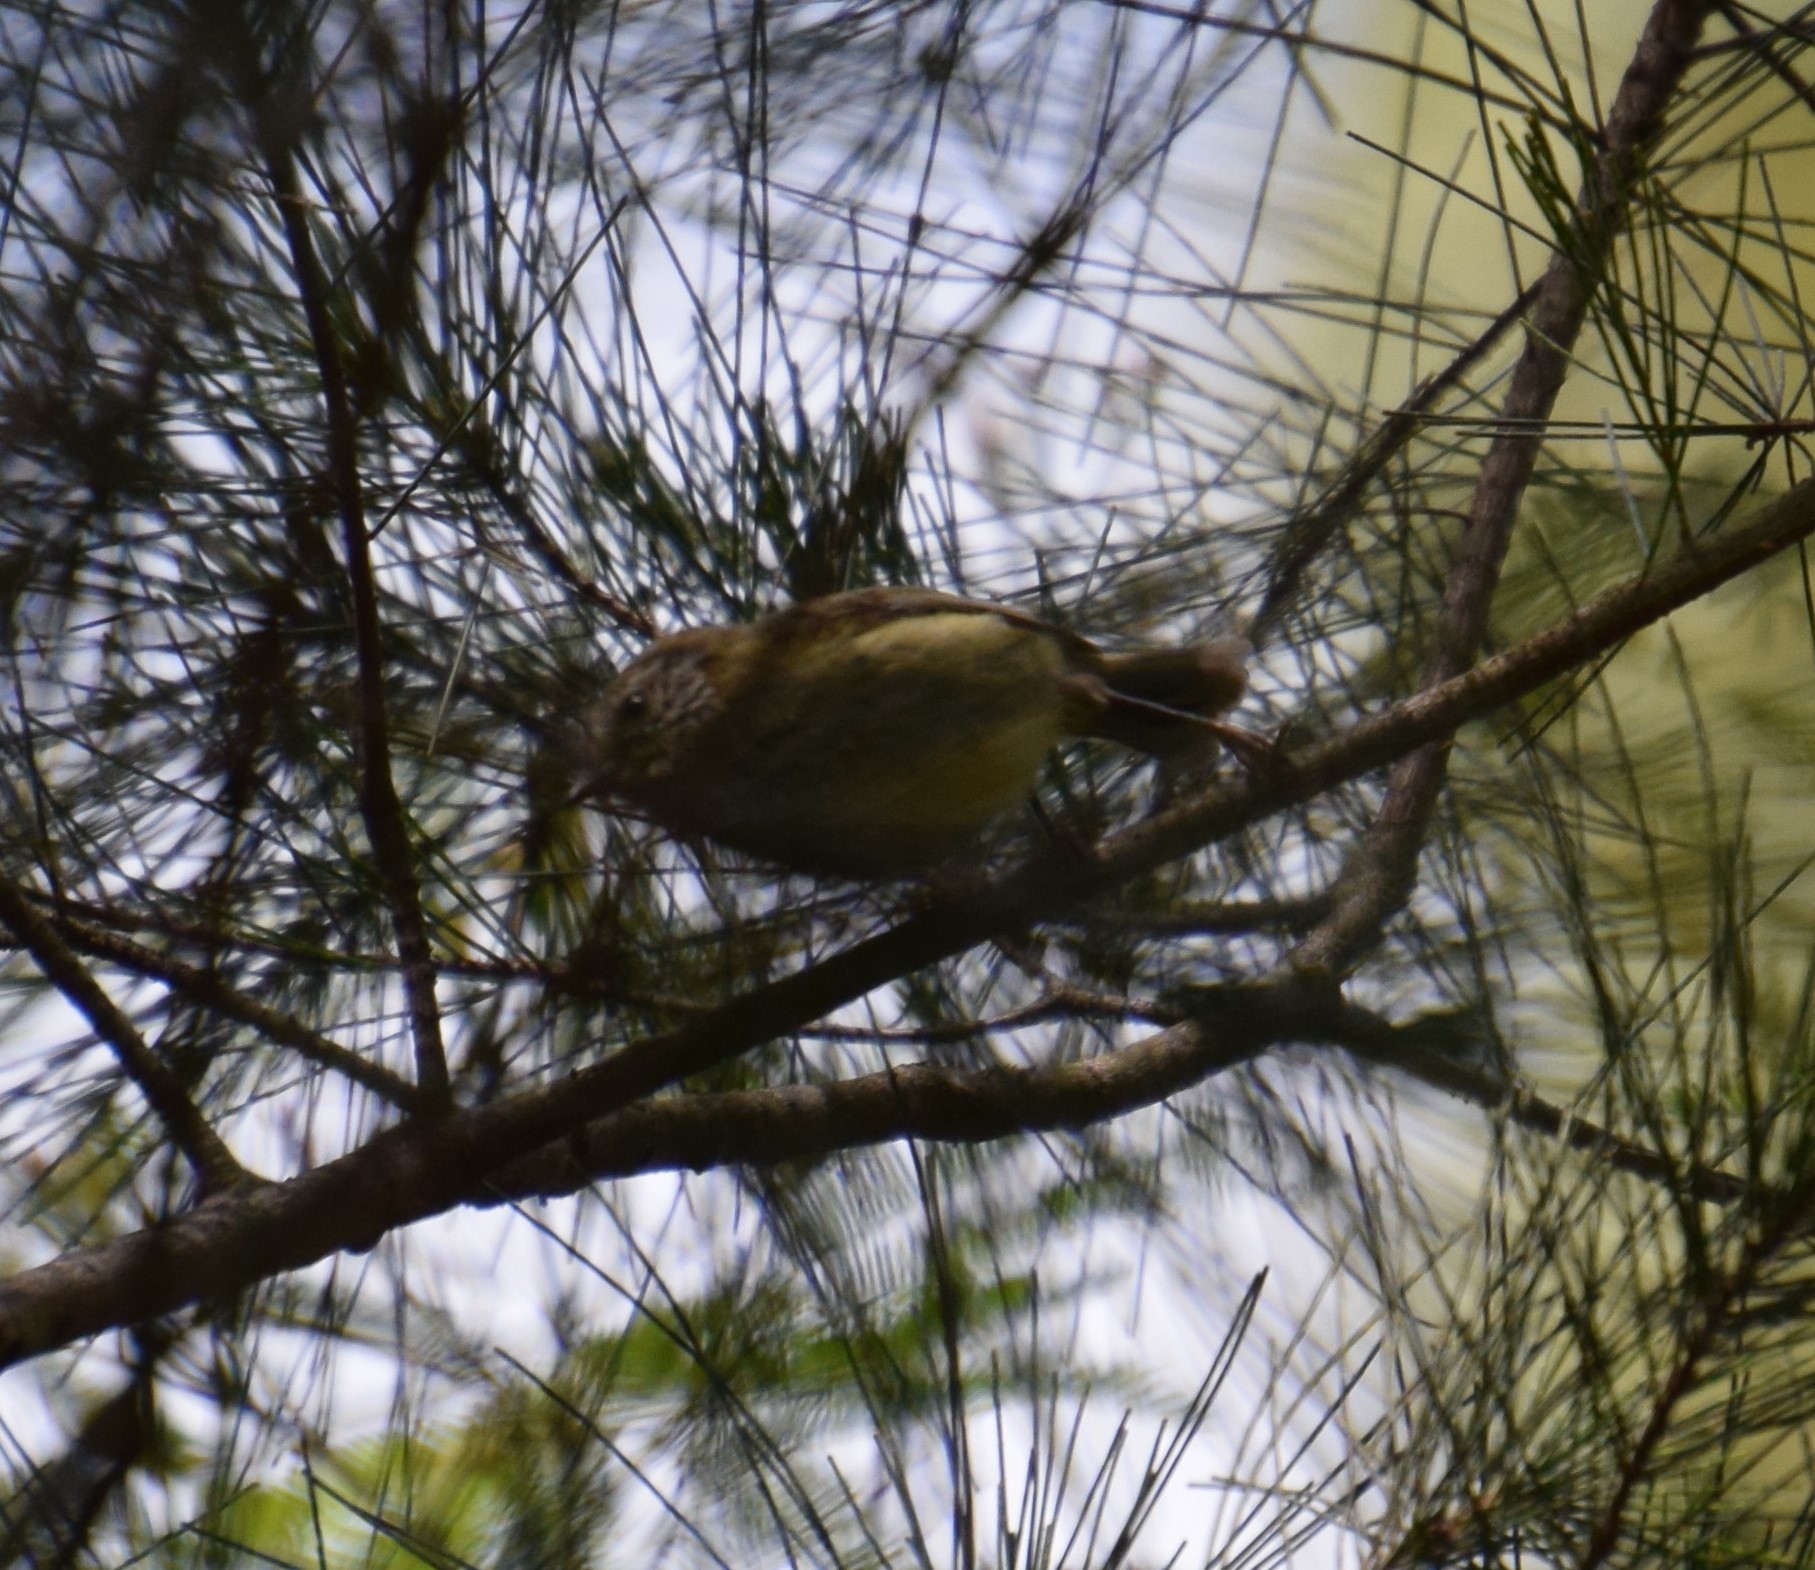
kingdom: Animalia
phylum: Chordata
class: Aves
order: Passeriformes
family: Acanthizidae
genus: Acanthiza
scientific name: Acanthiza lineata
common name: Striated thornbill
